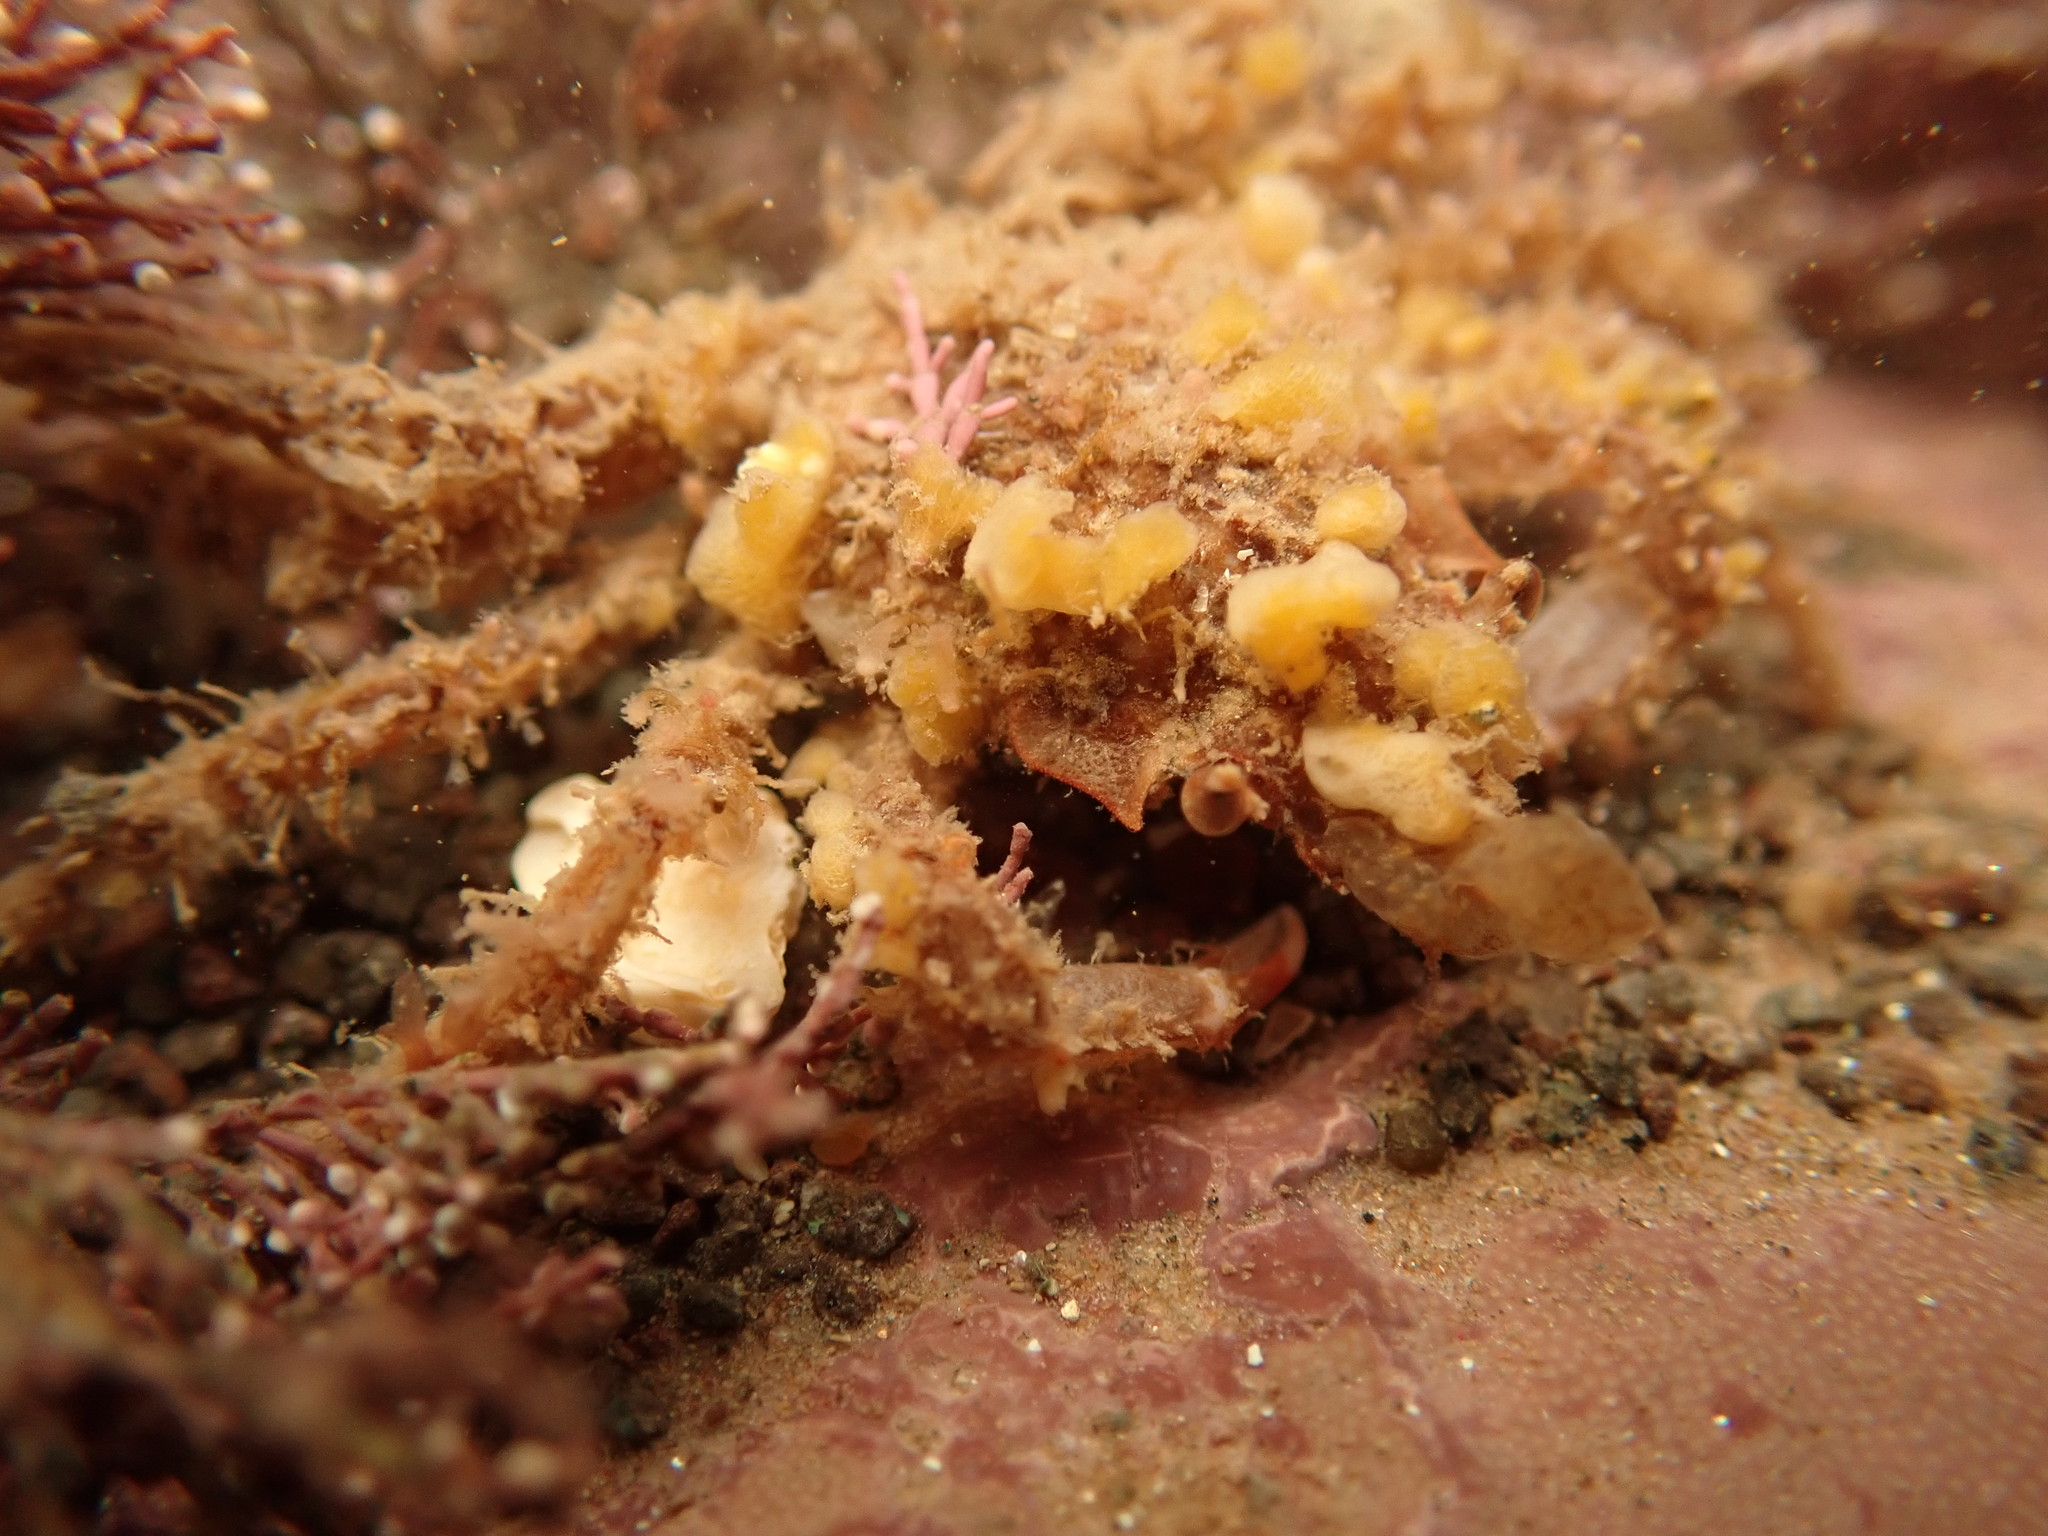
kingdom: Animalia
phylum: Arthropoda
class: Malacostraca
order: Decapoda
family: Oregoniidae
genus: Hyas
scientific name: Hyas coarctatus
